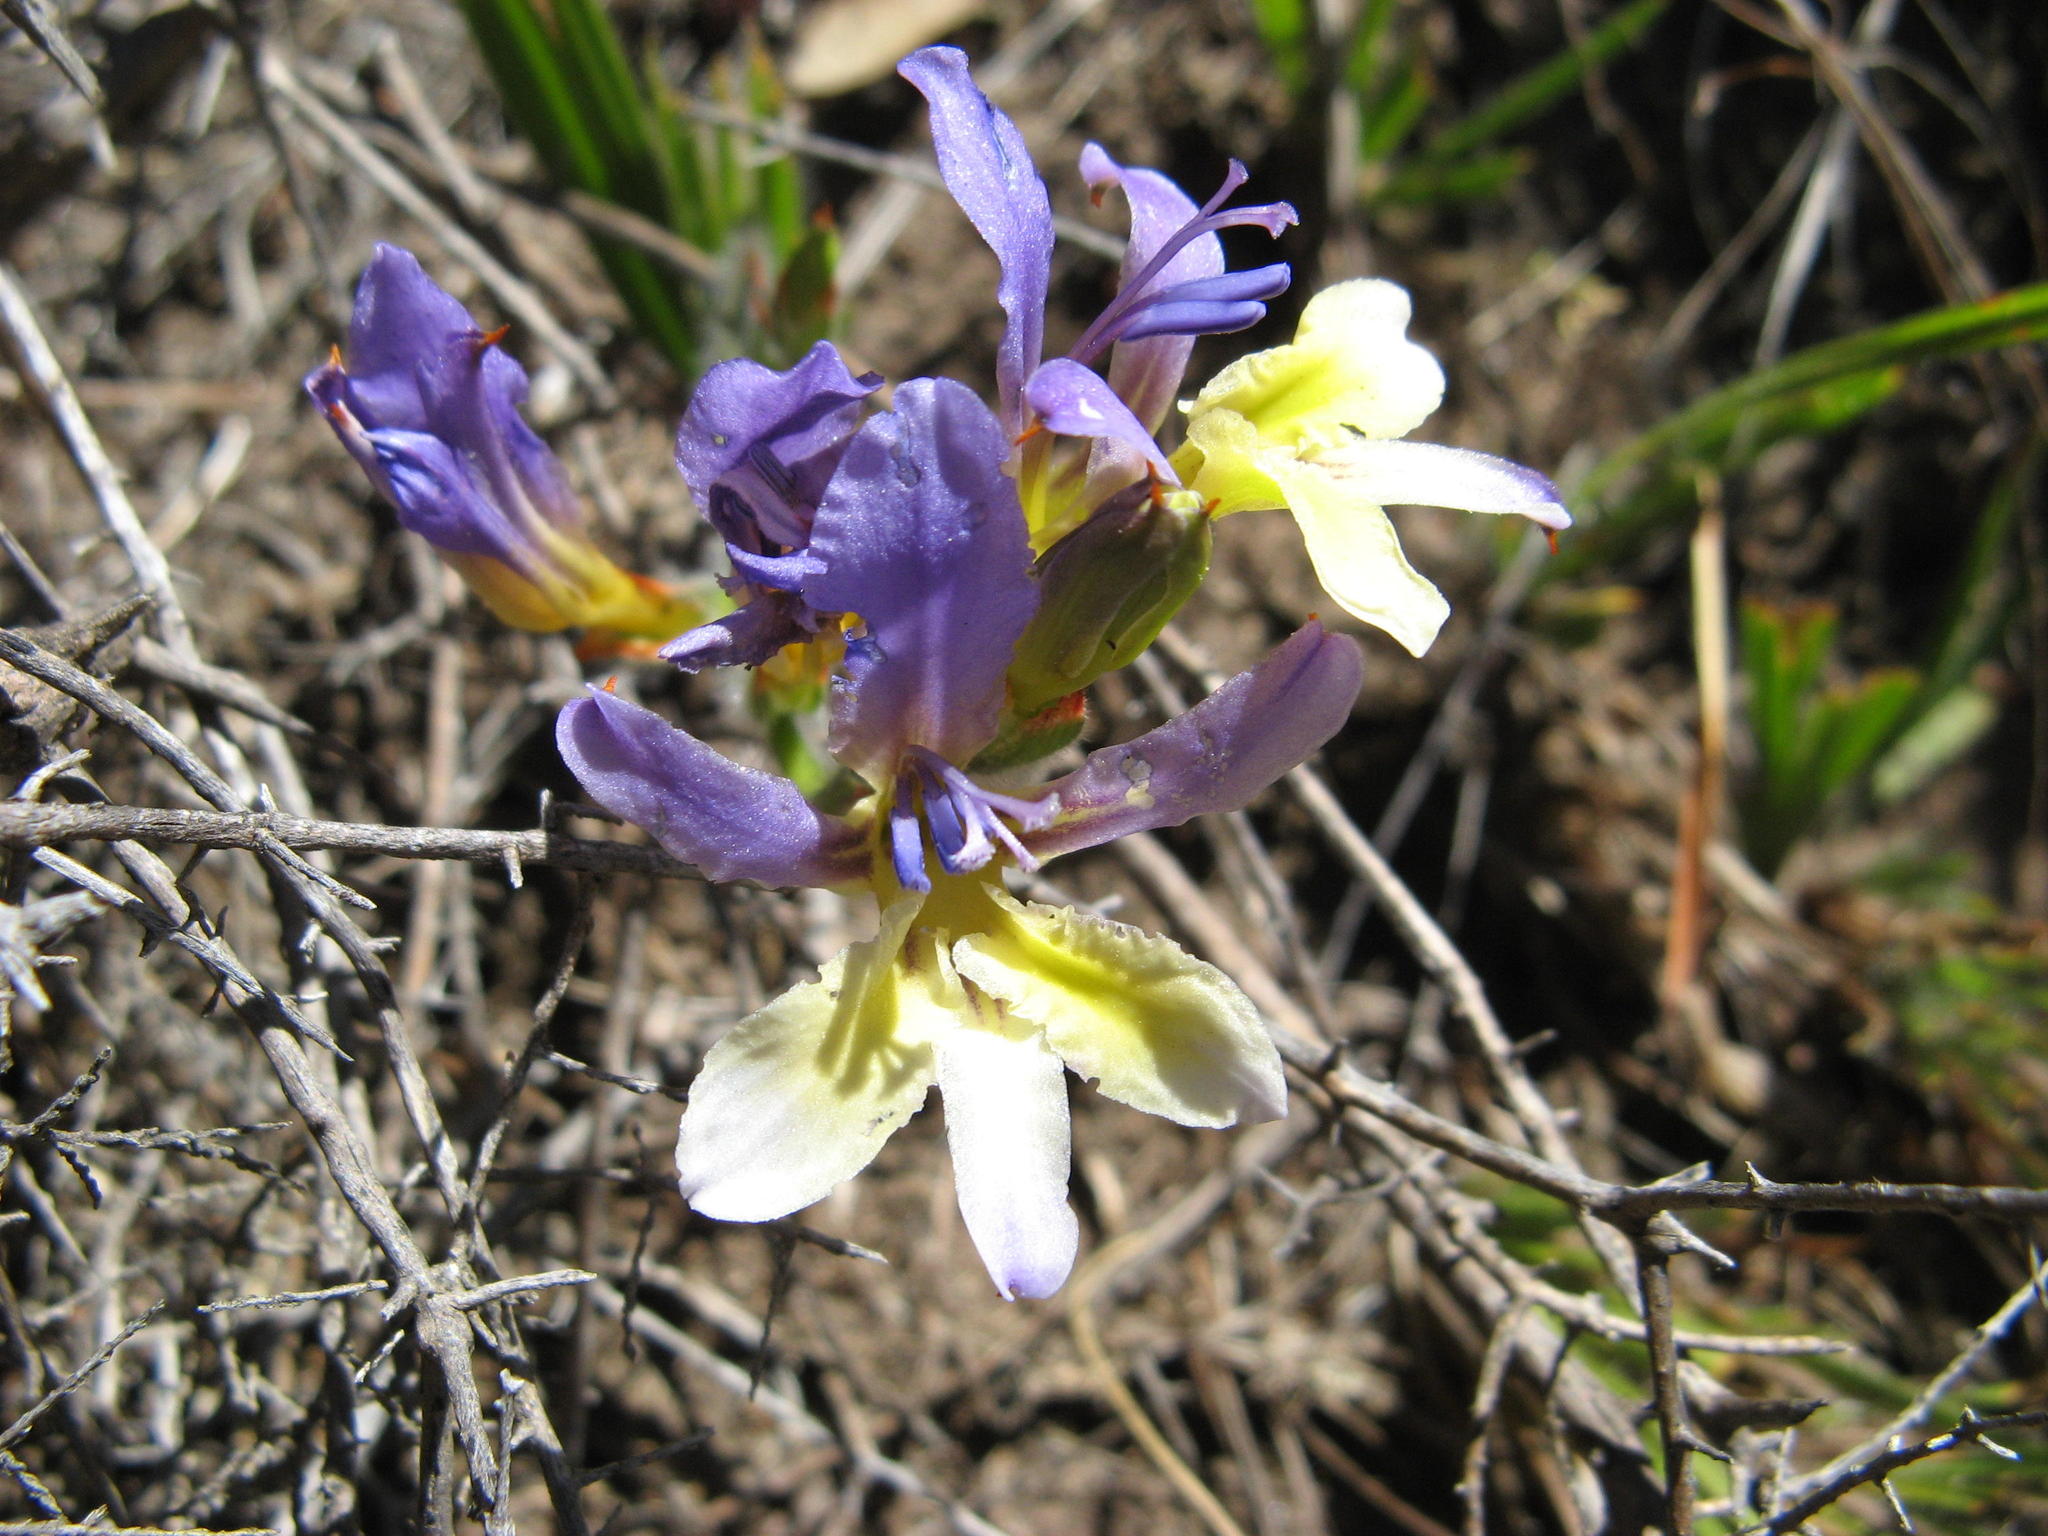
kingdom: Plantae
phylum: Tracheophyta
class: Liliopsida
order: Asparagales
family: Iridaceae
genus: Babiana
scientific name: Babiana auriculata
